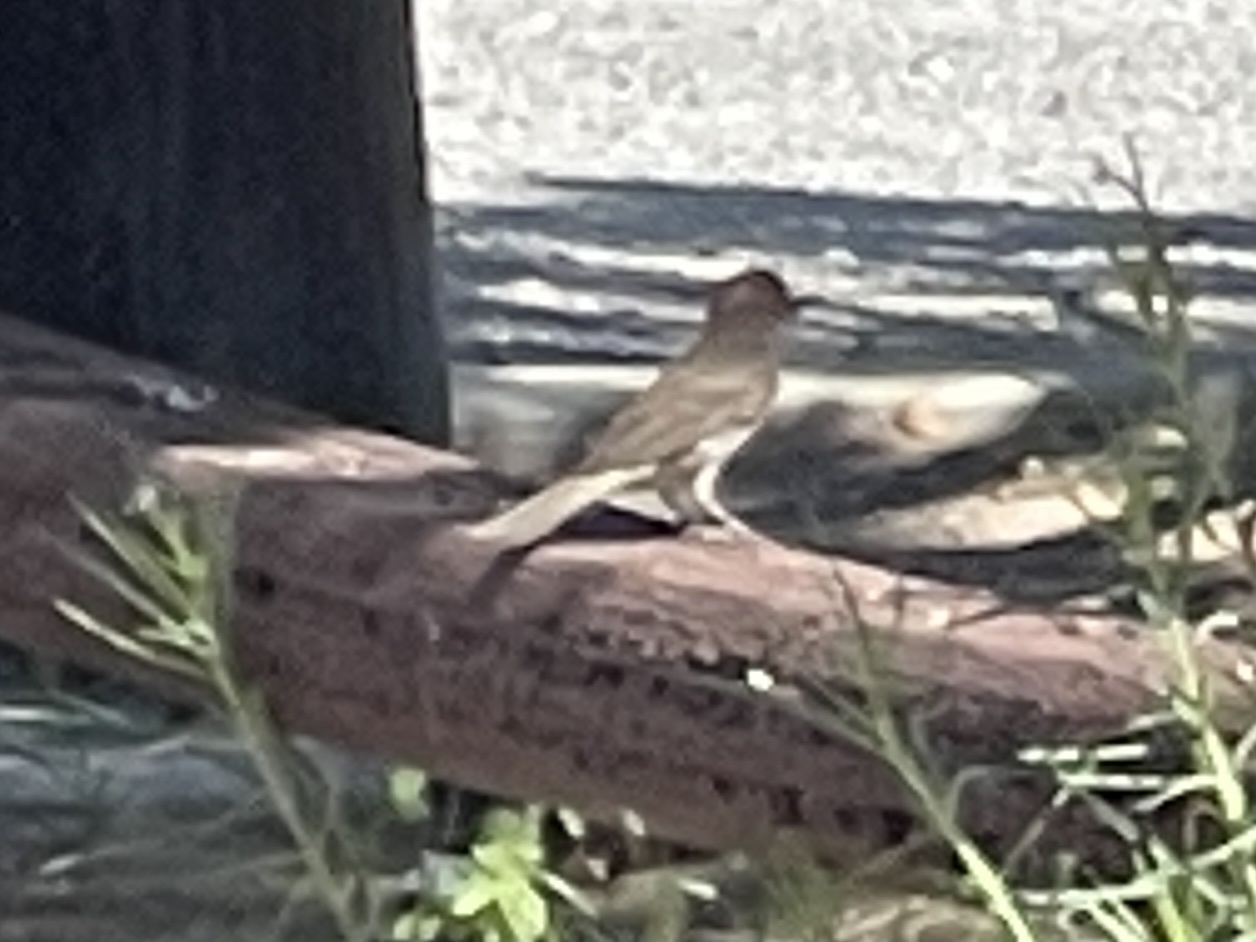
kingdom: Animalia
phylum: Chordata
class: Aves
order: Passeriformes
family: Fringillidae
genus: Haemorhous
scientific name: Haemorhous mexicanus
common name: House finch
